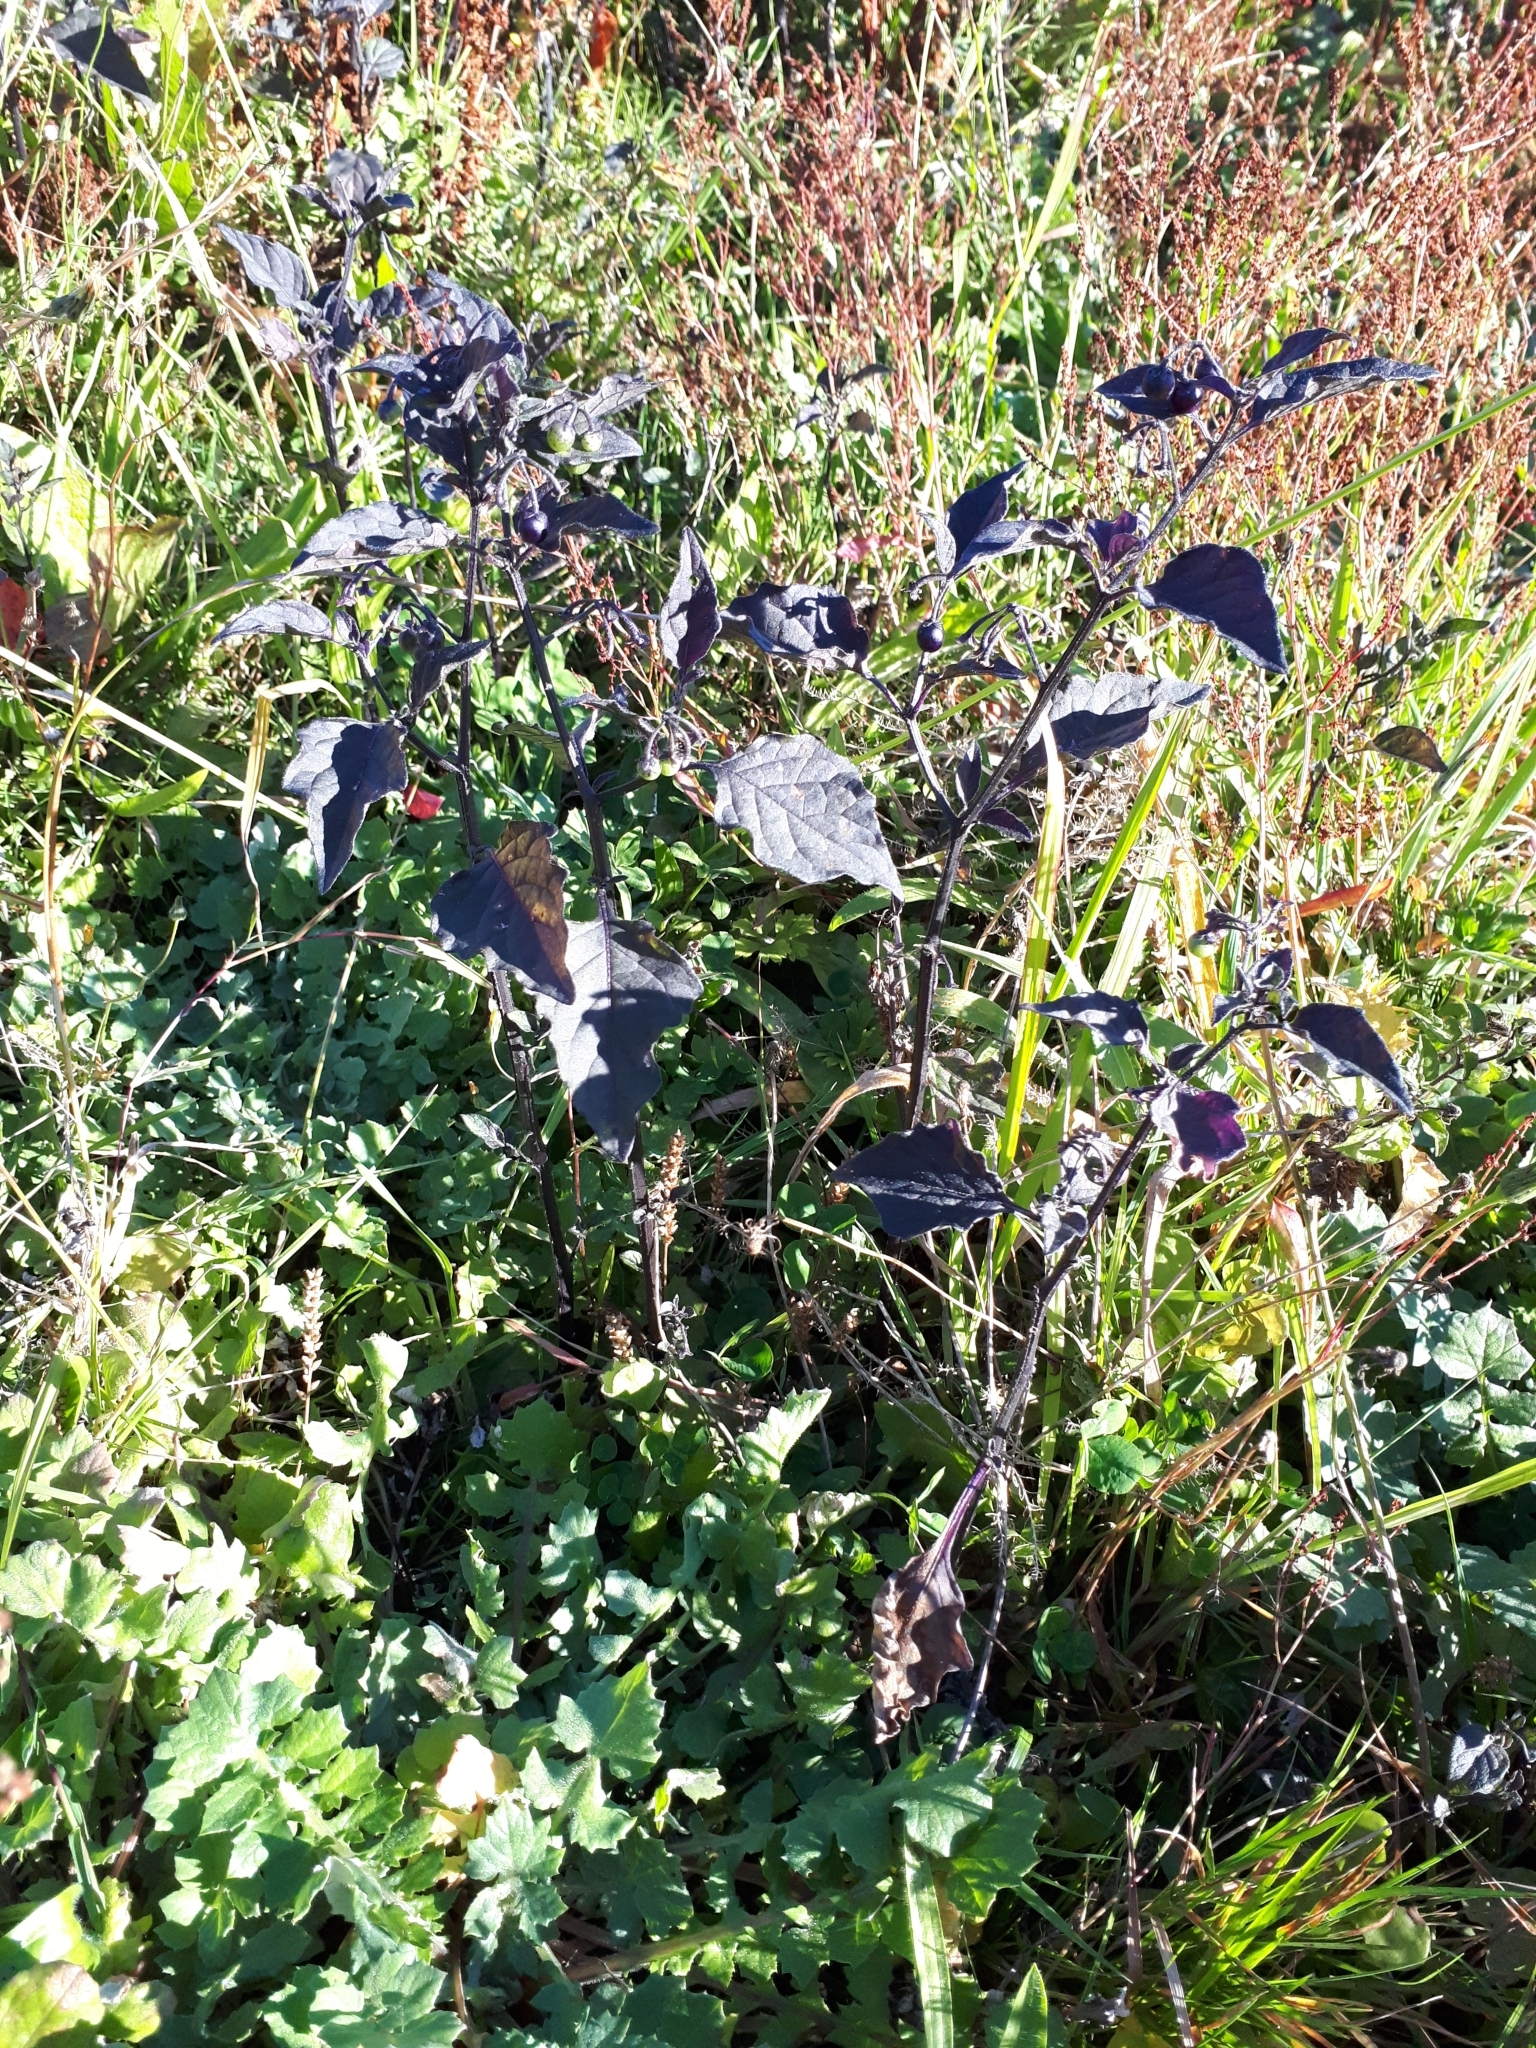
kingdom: Plantae
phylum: Tracheophyta
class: Magnoliopsida
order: Solanales
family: Solanaceae
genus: Solanum
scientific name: Solanum nigrum
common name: Black nightshade
